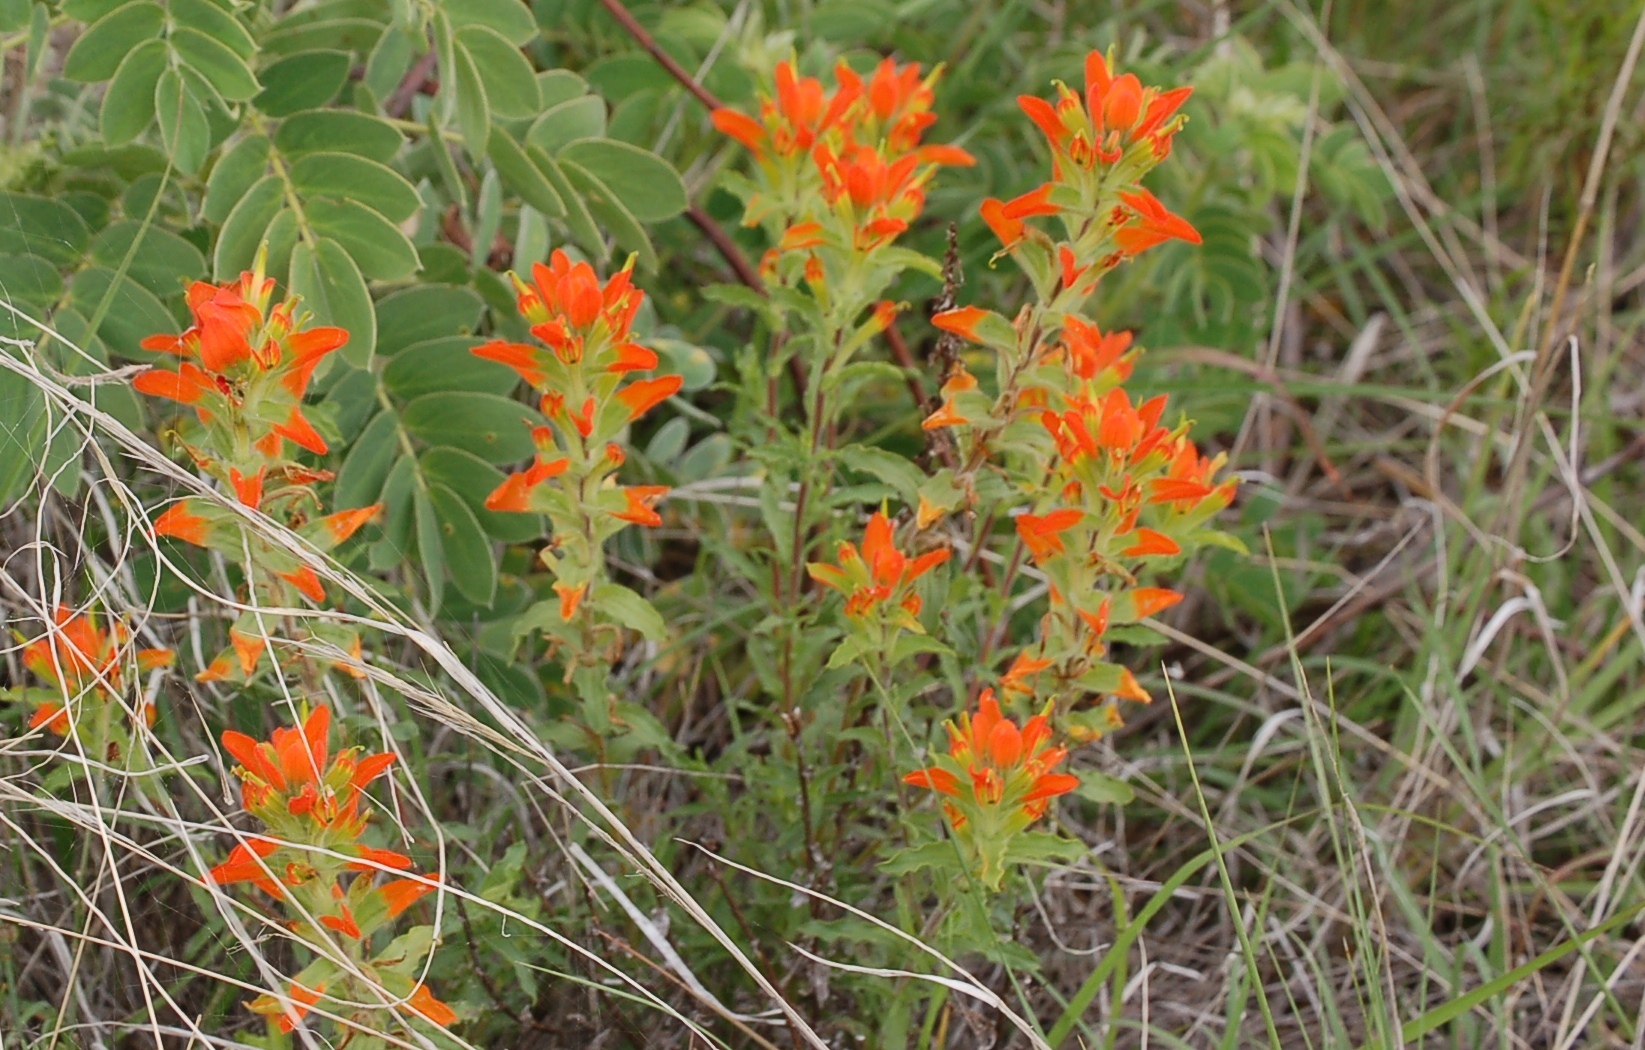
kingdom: Plantae
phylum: Tracheophyta
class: Magnoliopsida
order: Lamiales
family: Orobanchaceae
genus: Castilleja
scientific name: Castilleja scorzonerifolia
